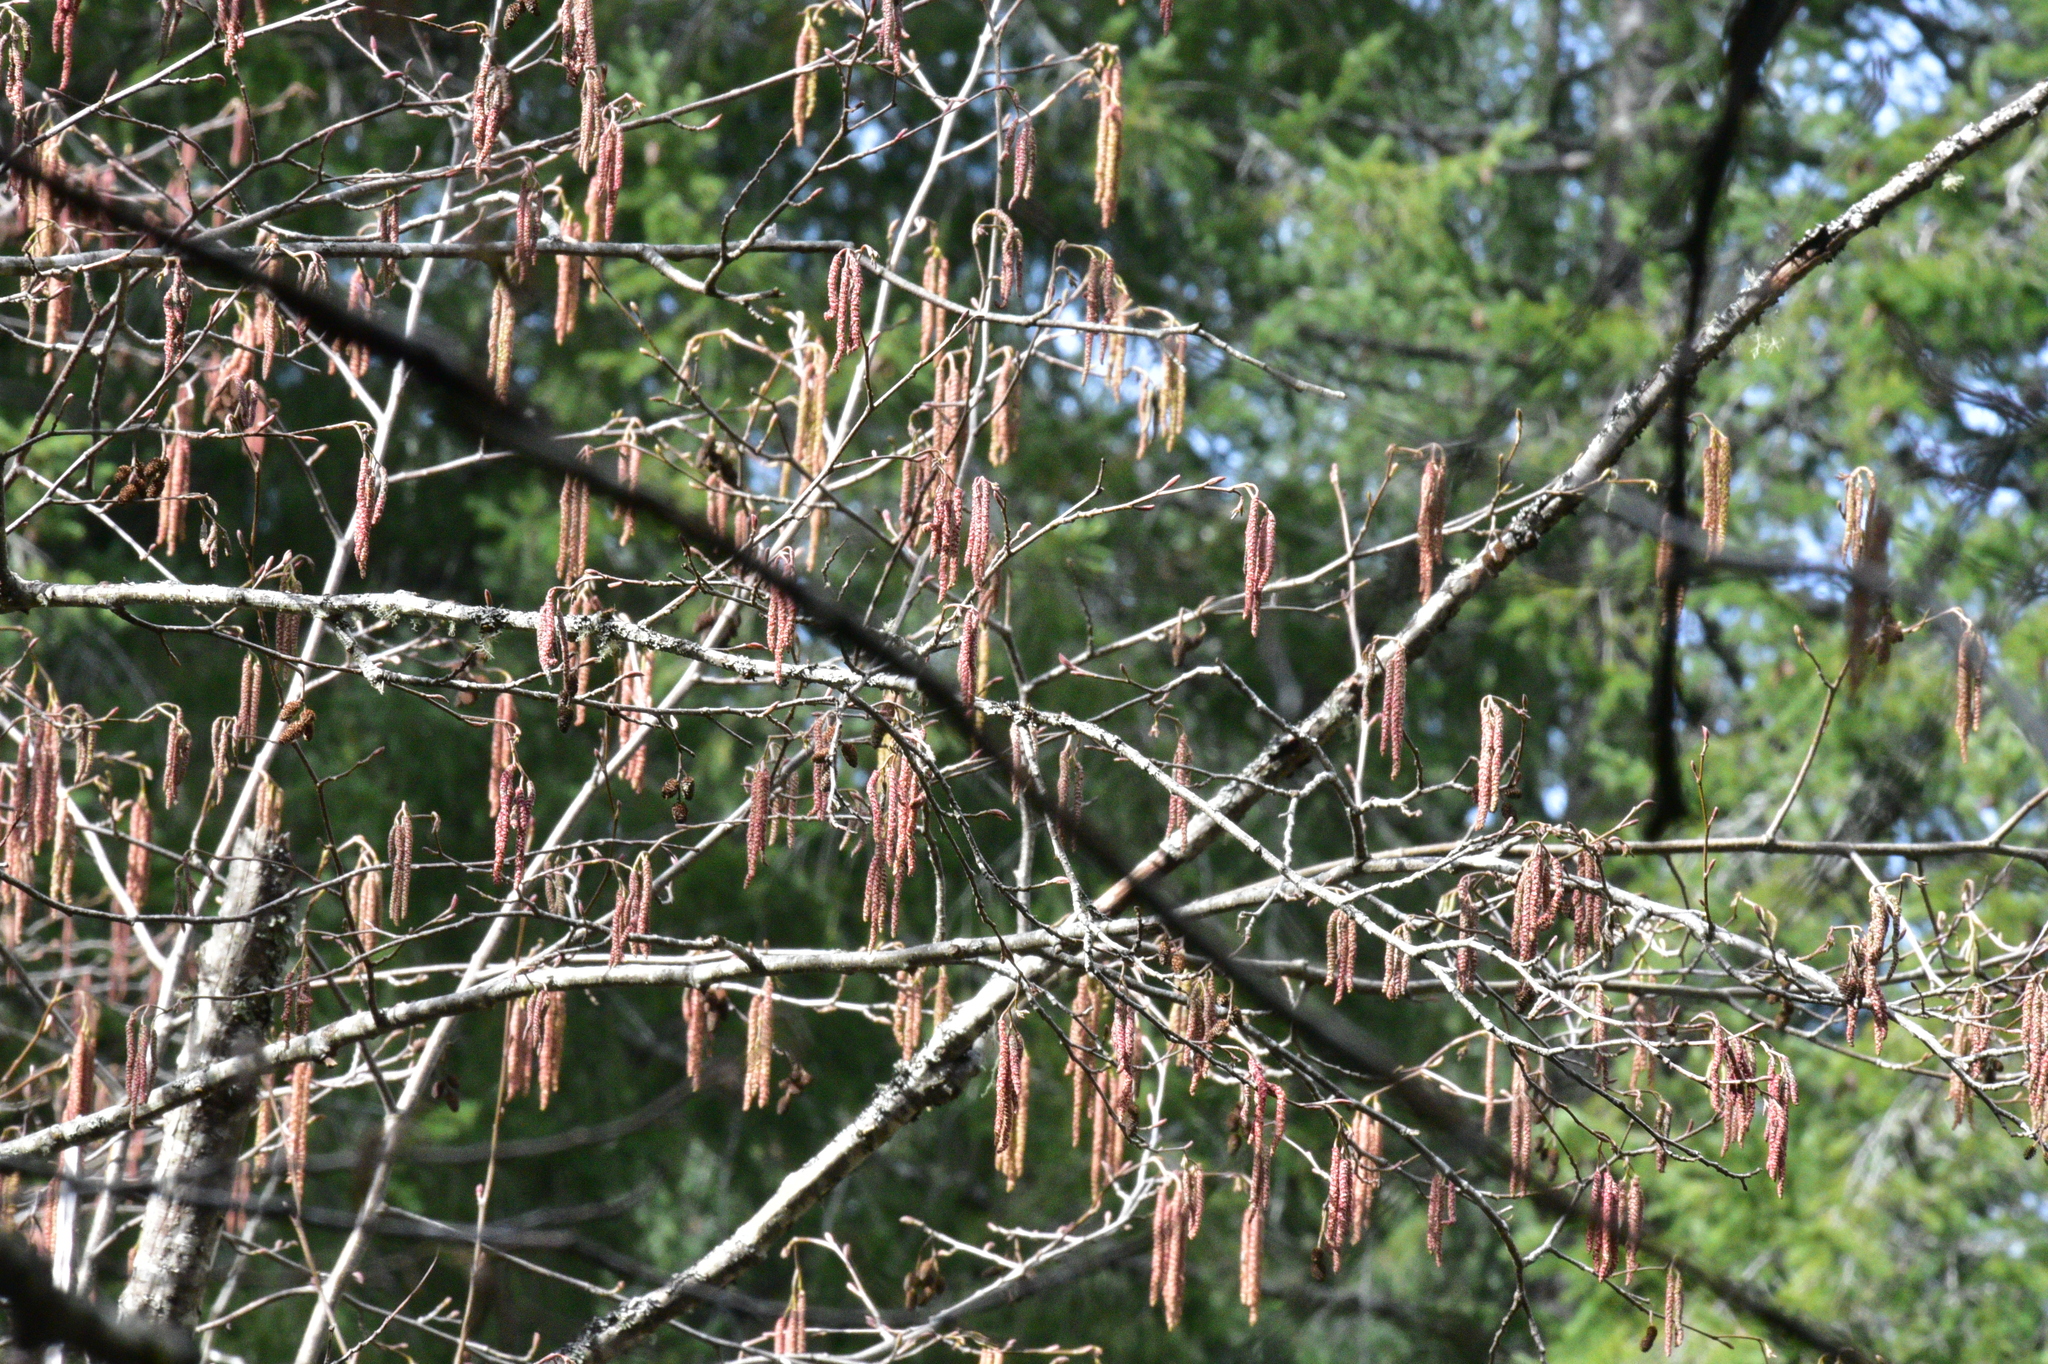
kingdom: Plantae
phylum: Tracheophyta
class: Magnoliopsida
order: Fagales
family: Betulaceae
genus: Alnus
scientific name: Alnus rubra
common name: Red alder
